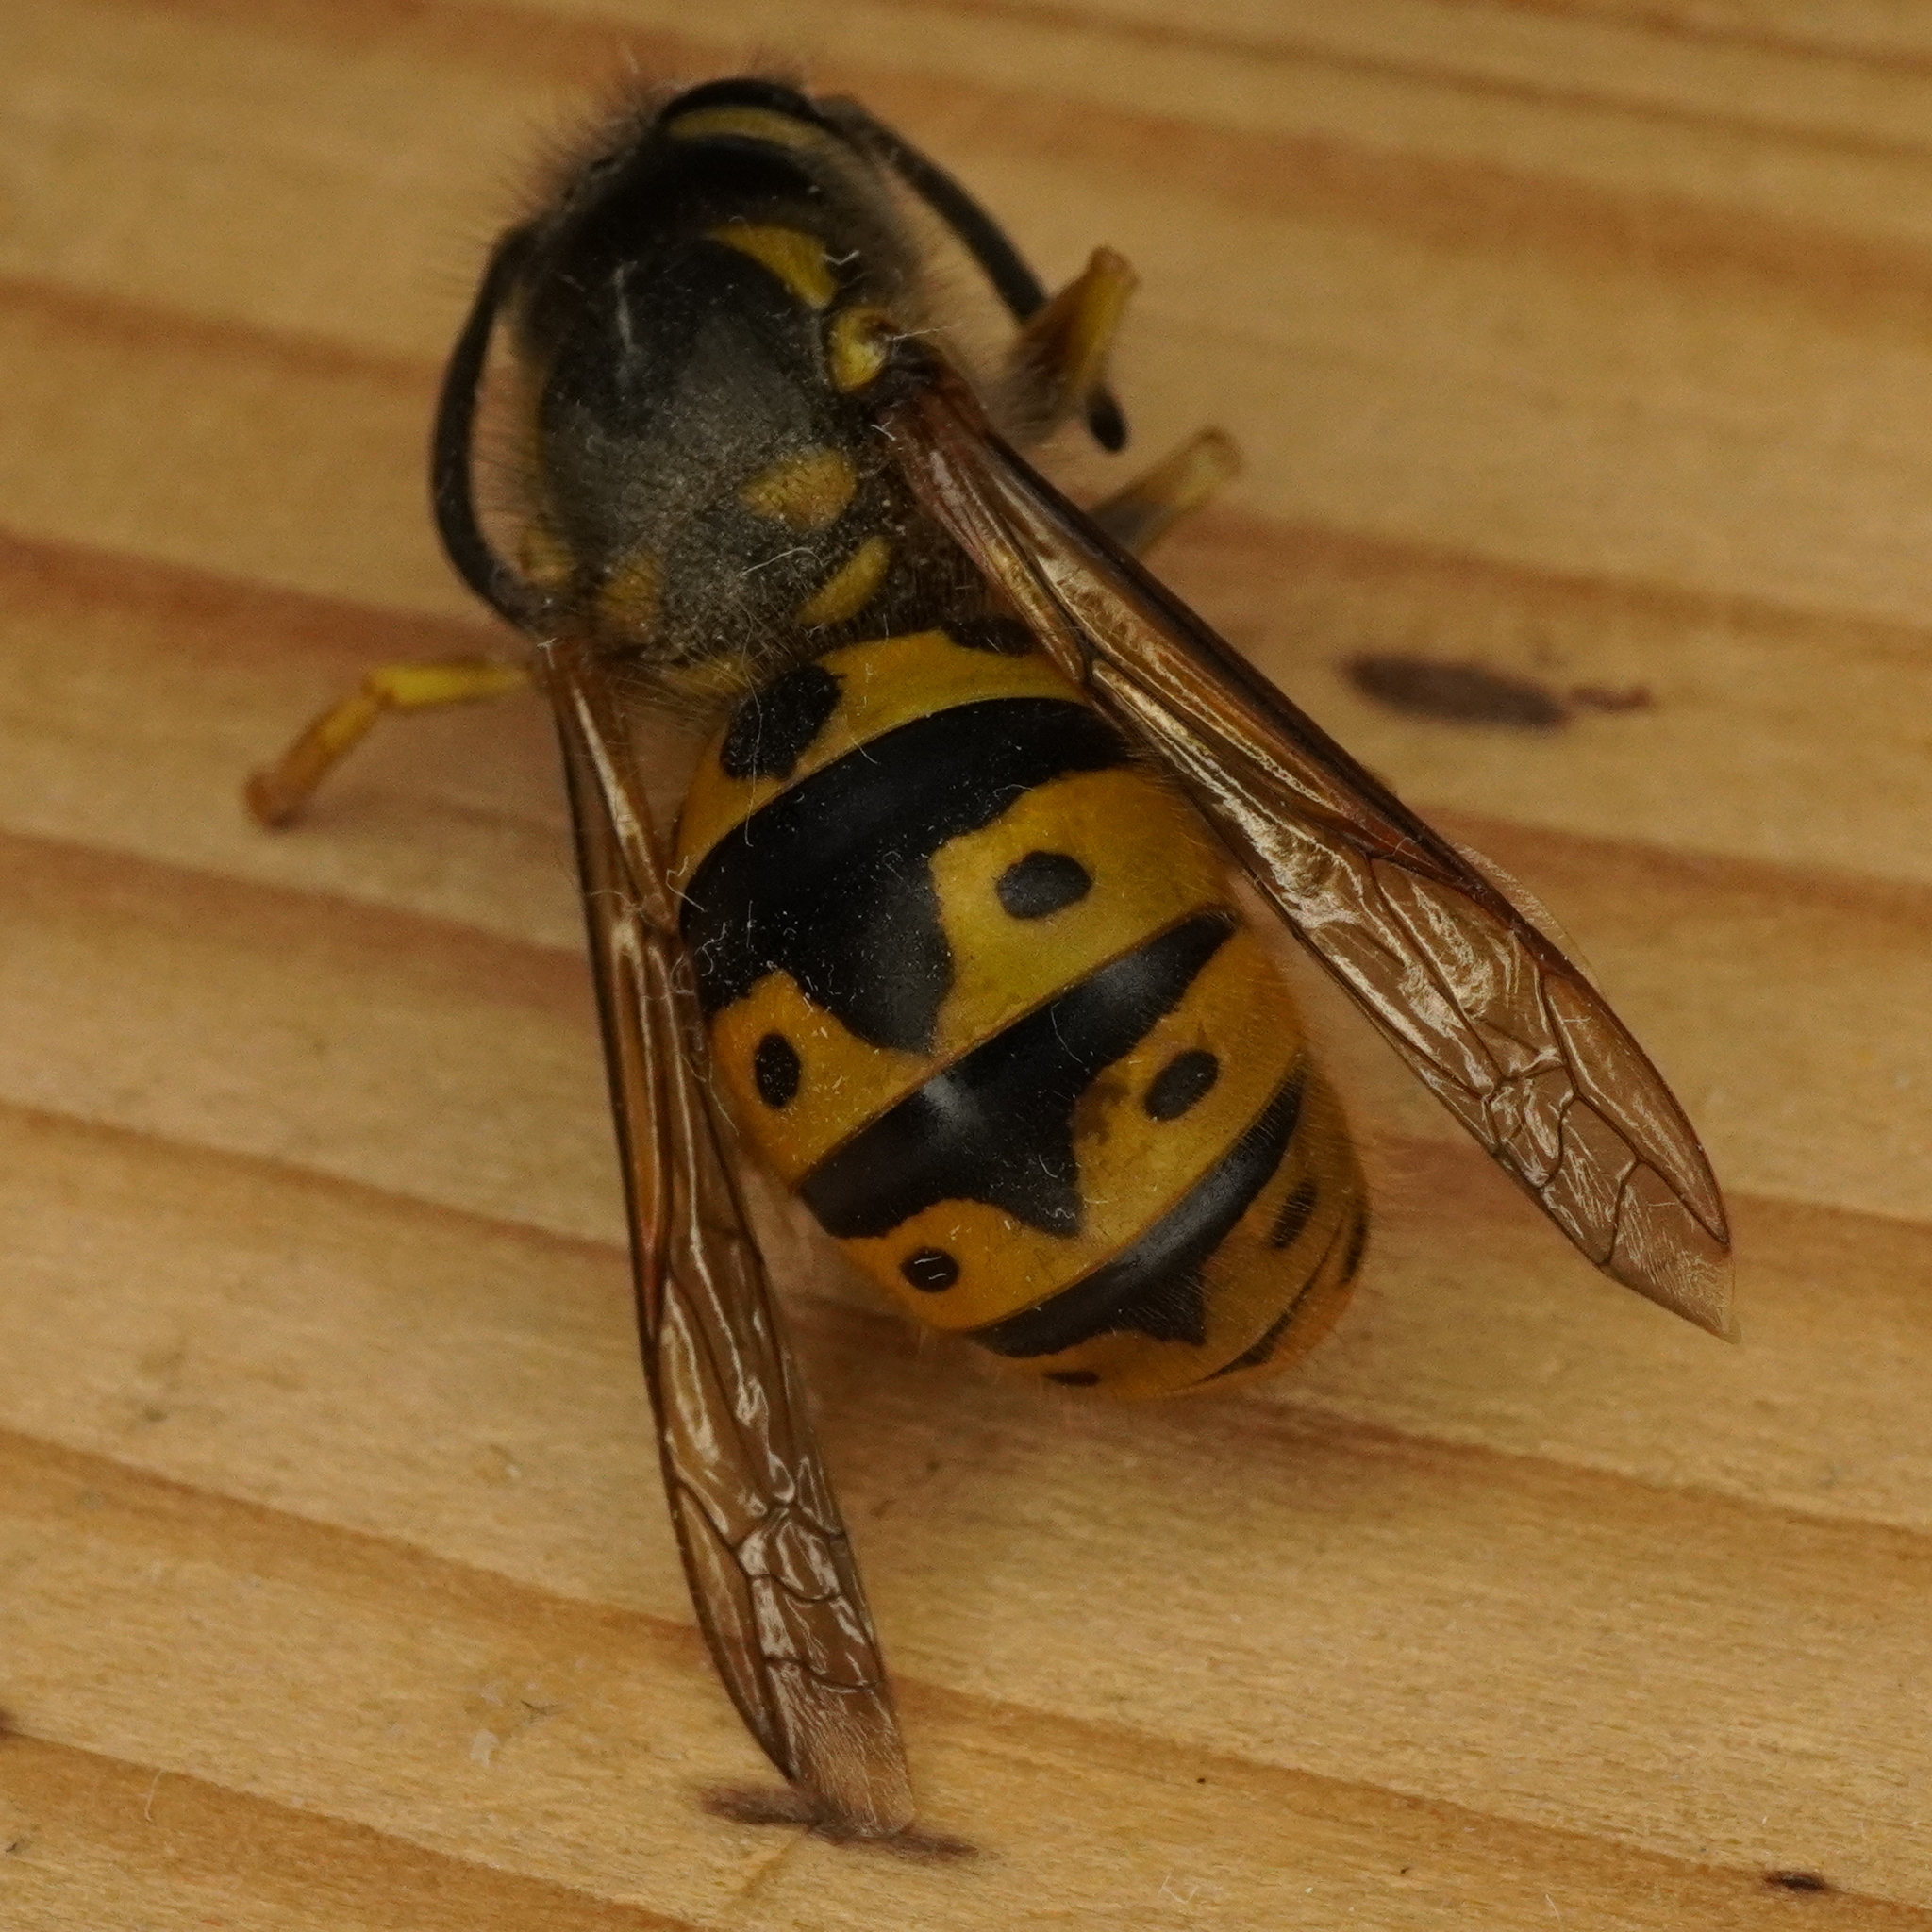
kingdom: Animalia
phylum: Arthropoda
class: Insecta
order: Hymenoptera
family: Vespidae
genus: Vespula
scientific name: Vespula germanica
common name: German wasp
